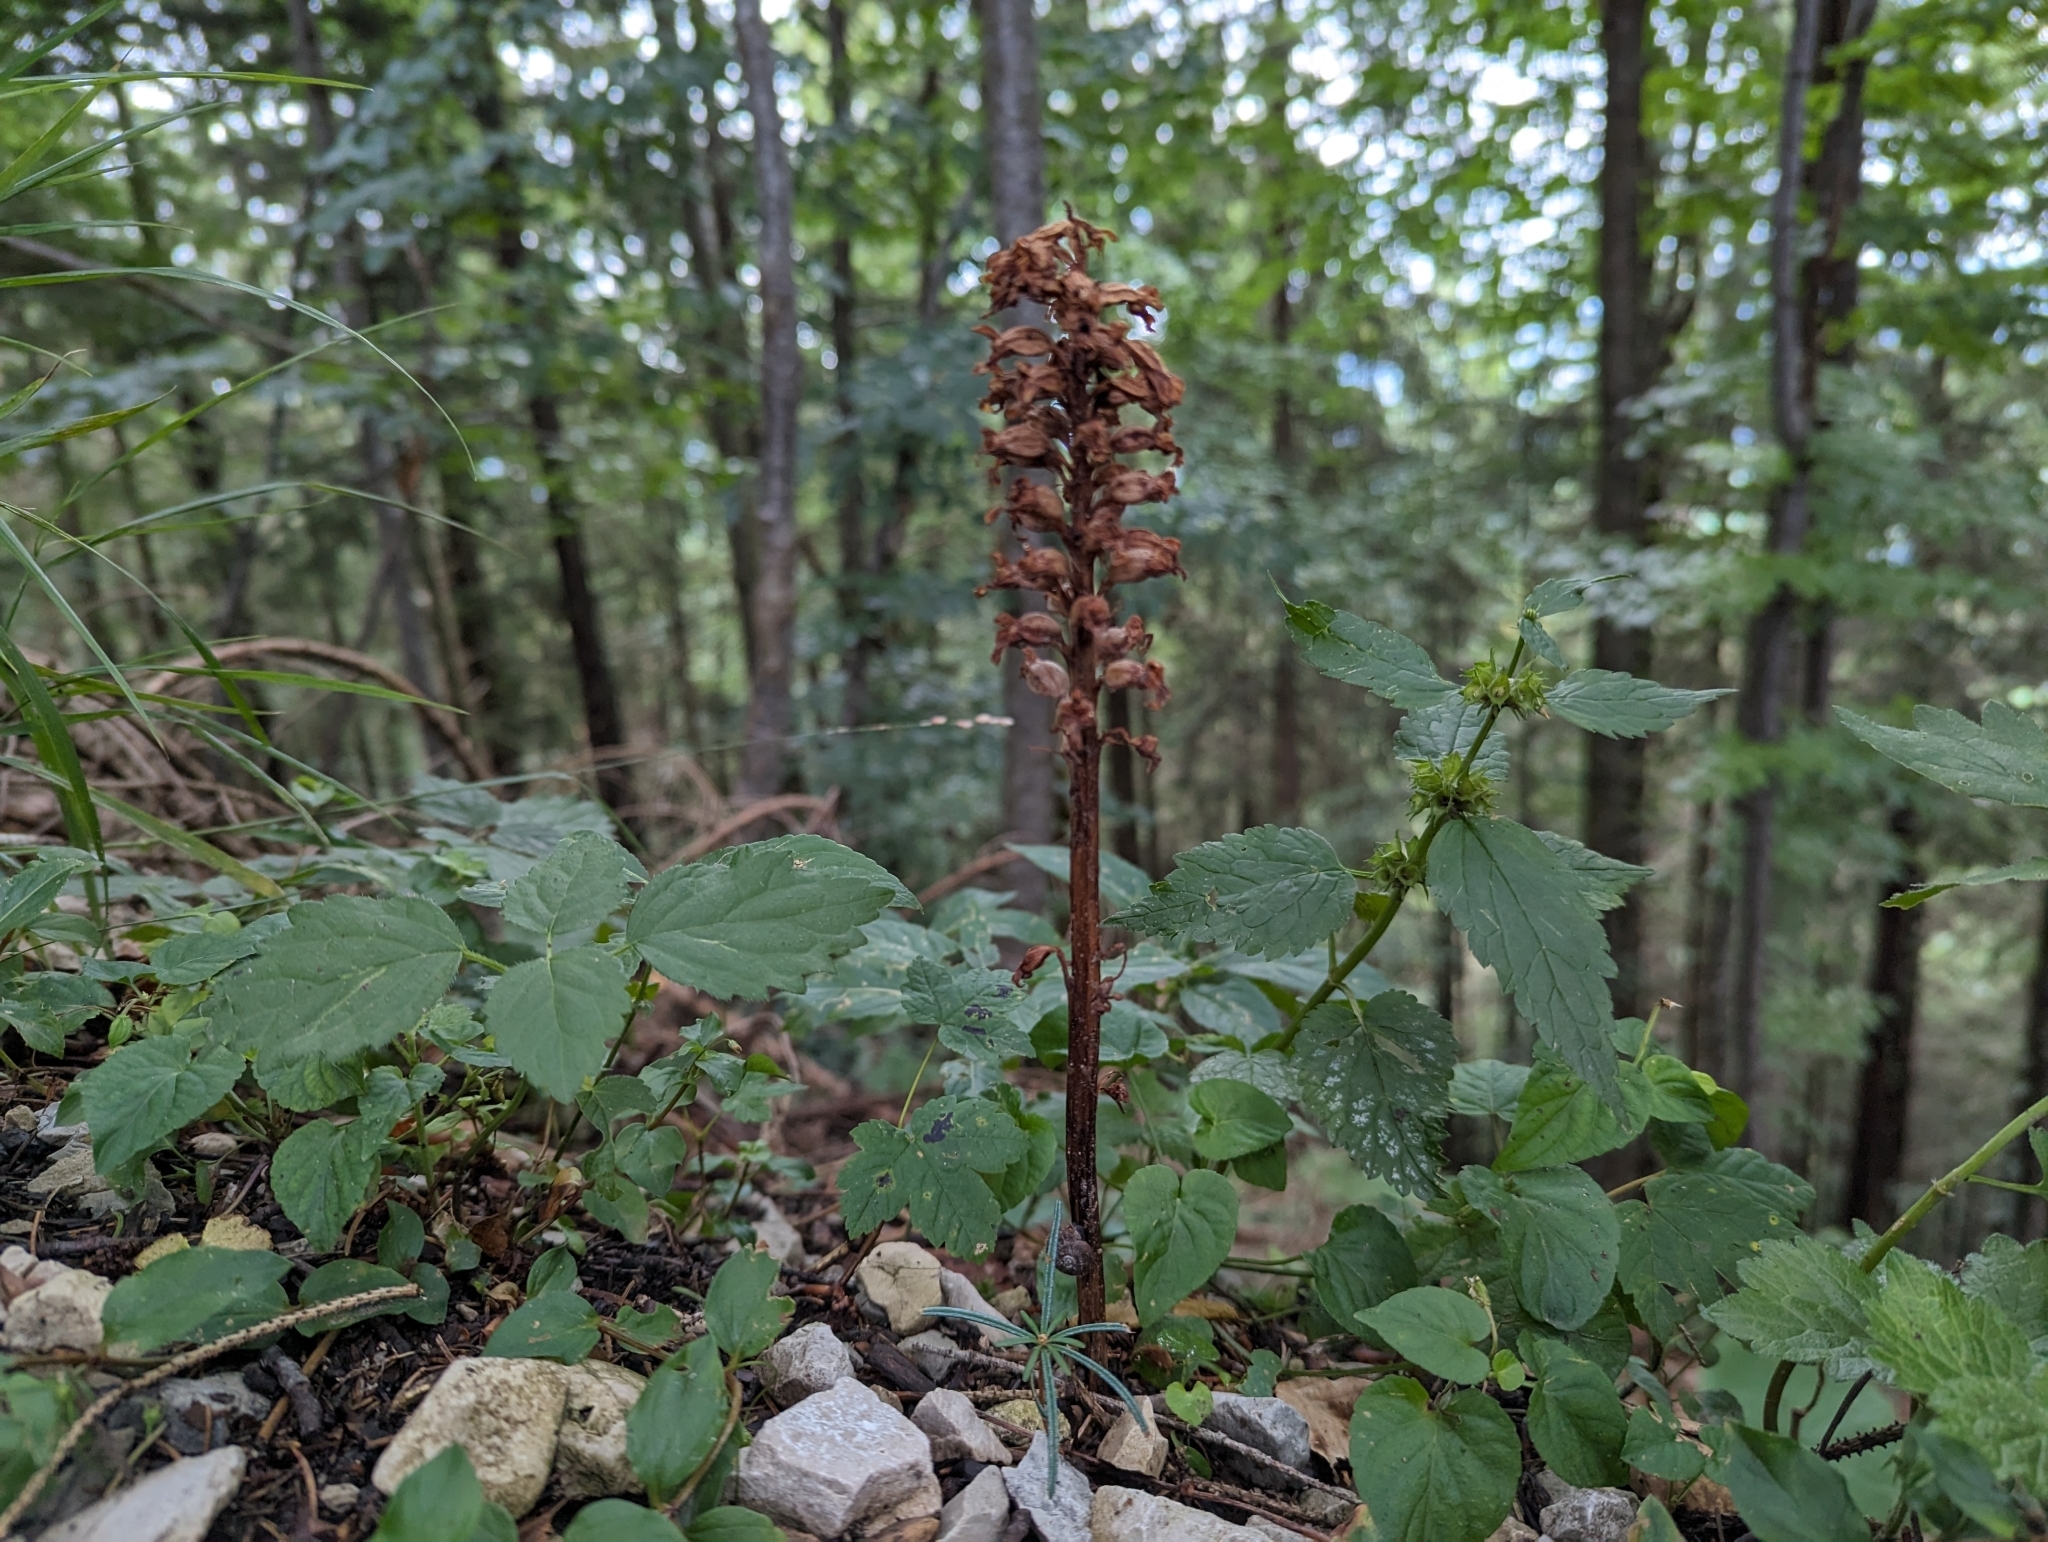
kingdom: Plantae
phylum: Tracheophyta
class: Liliopsida
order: Asparagales
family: Orchidaceae
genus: Neottia
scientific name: Neottia nidus-avis
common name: Bird's-nest orchid
